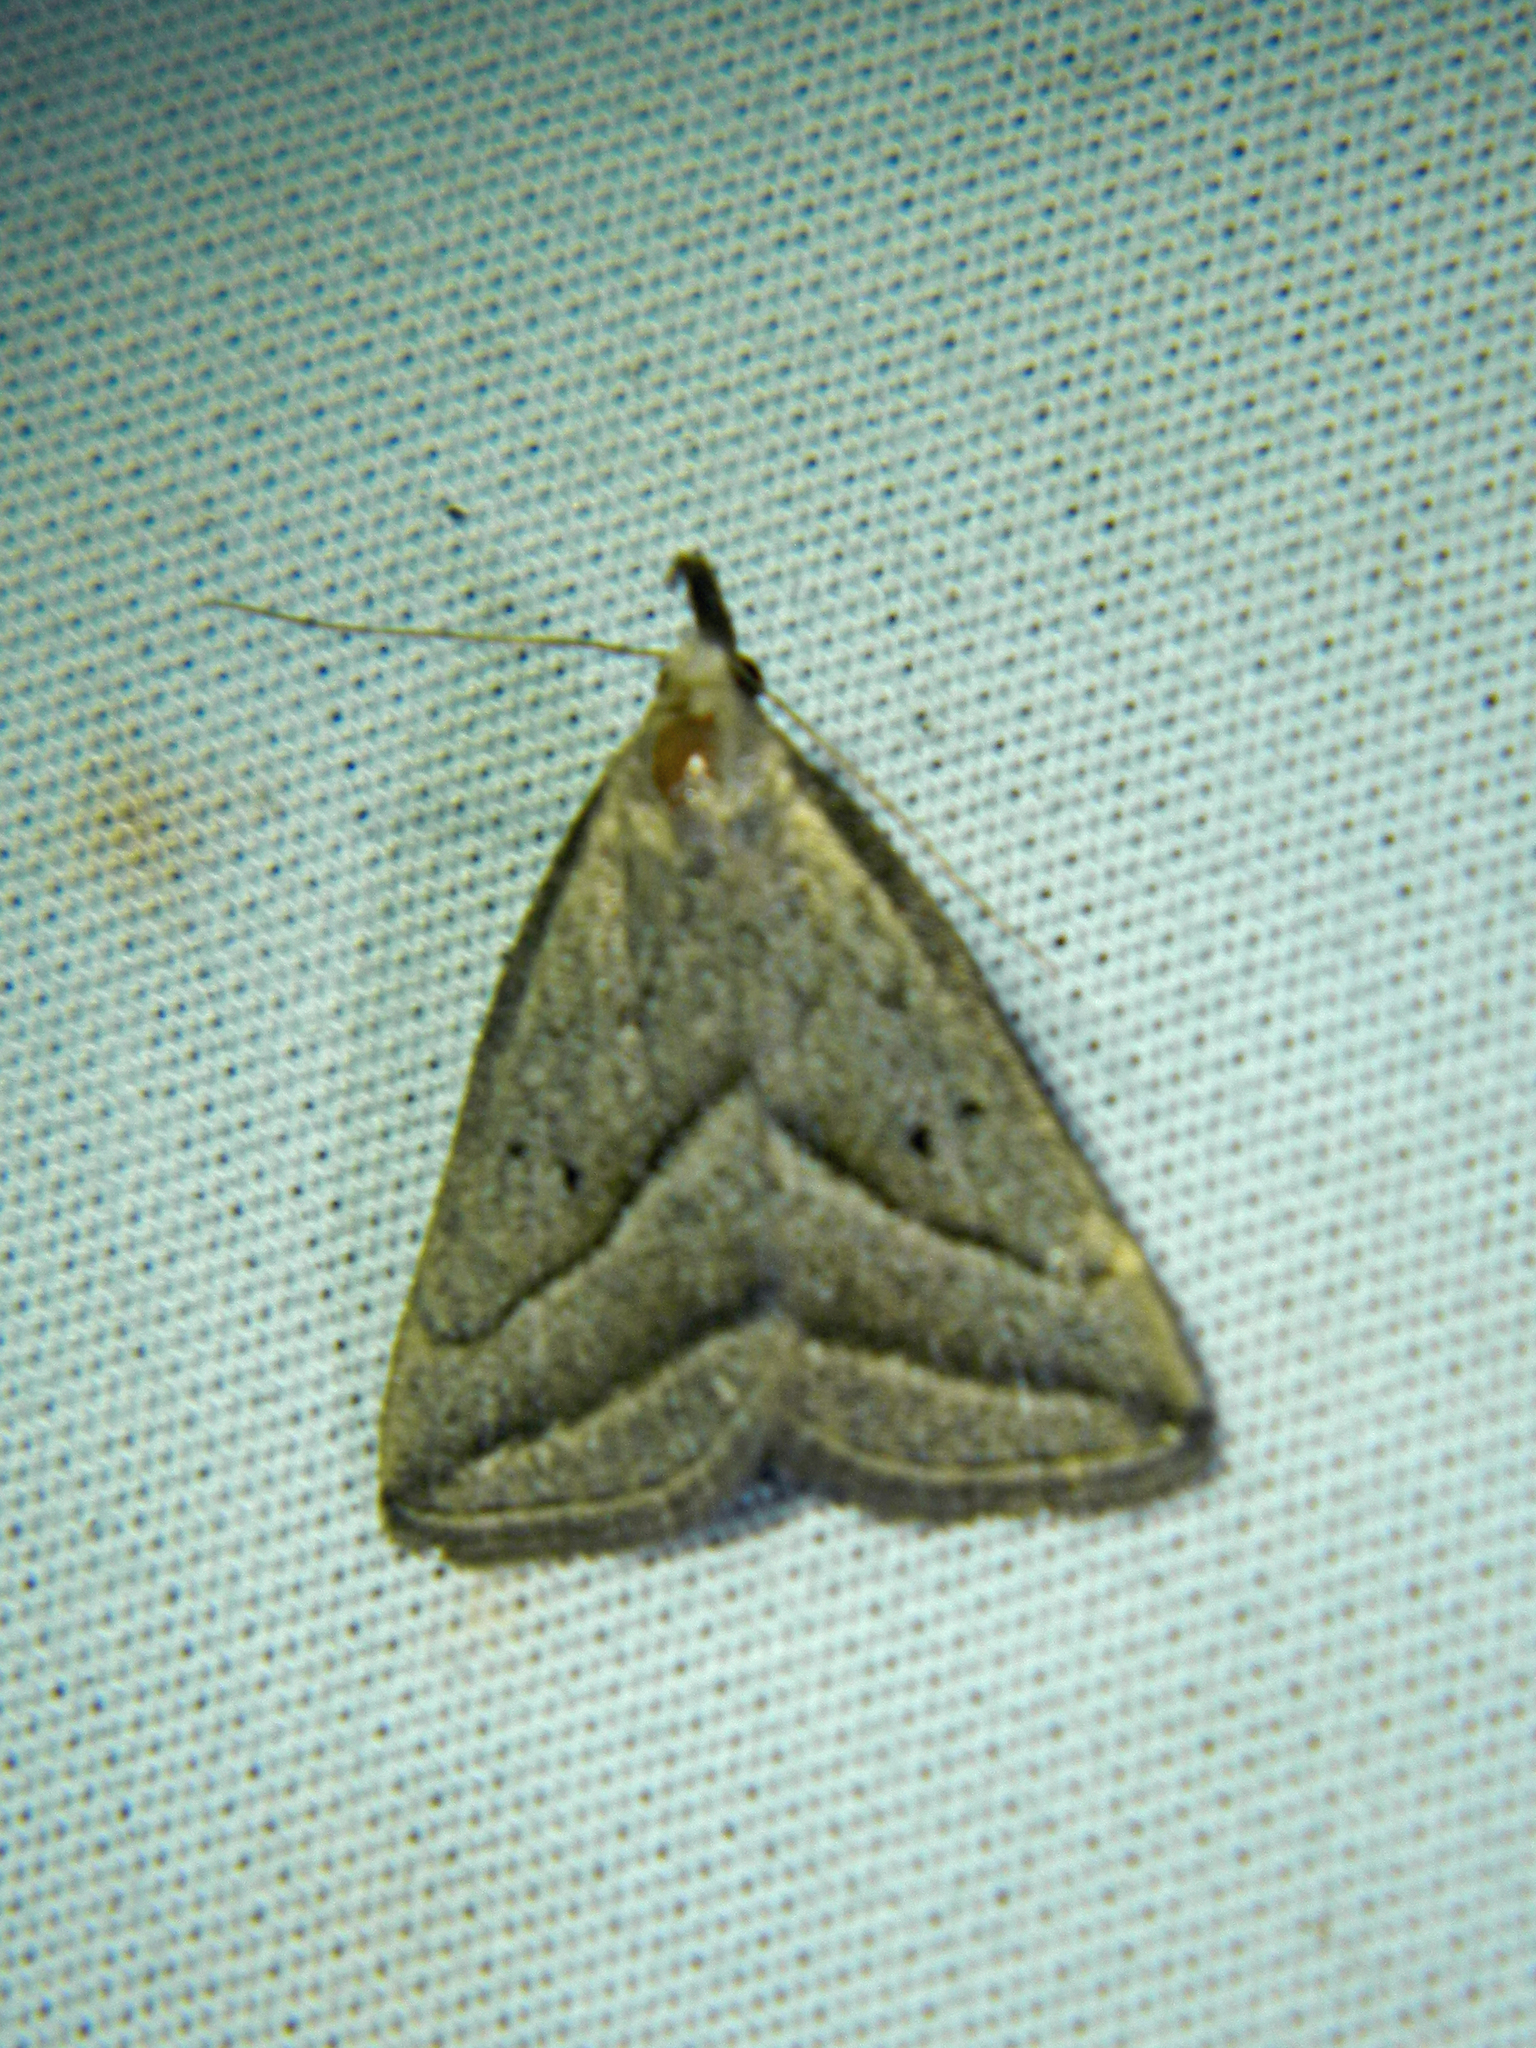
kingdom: Animalia
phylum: Arthropoda
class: Insecta
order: Lepidoptera
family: Erebidae
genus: Macrochilo
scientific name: Macrochilo absorptalis
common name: Slant-lined owlet
